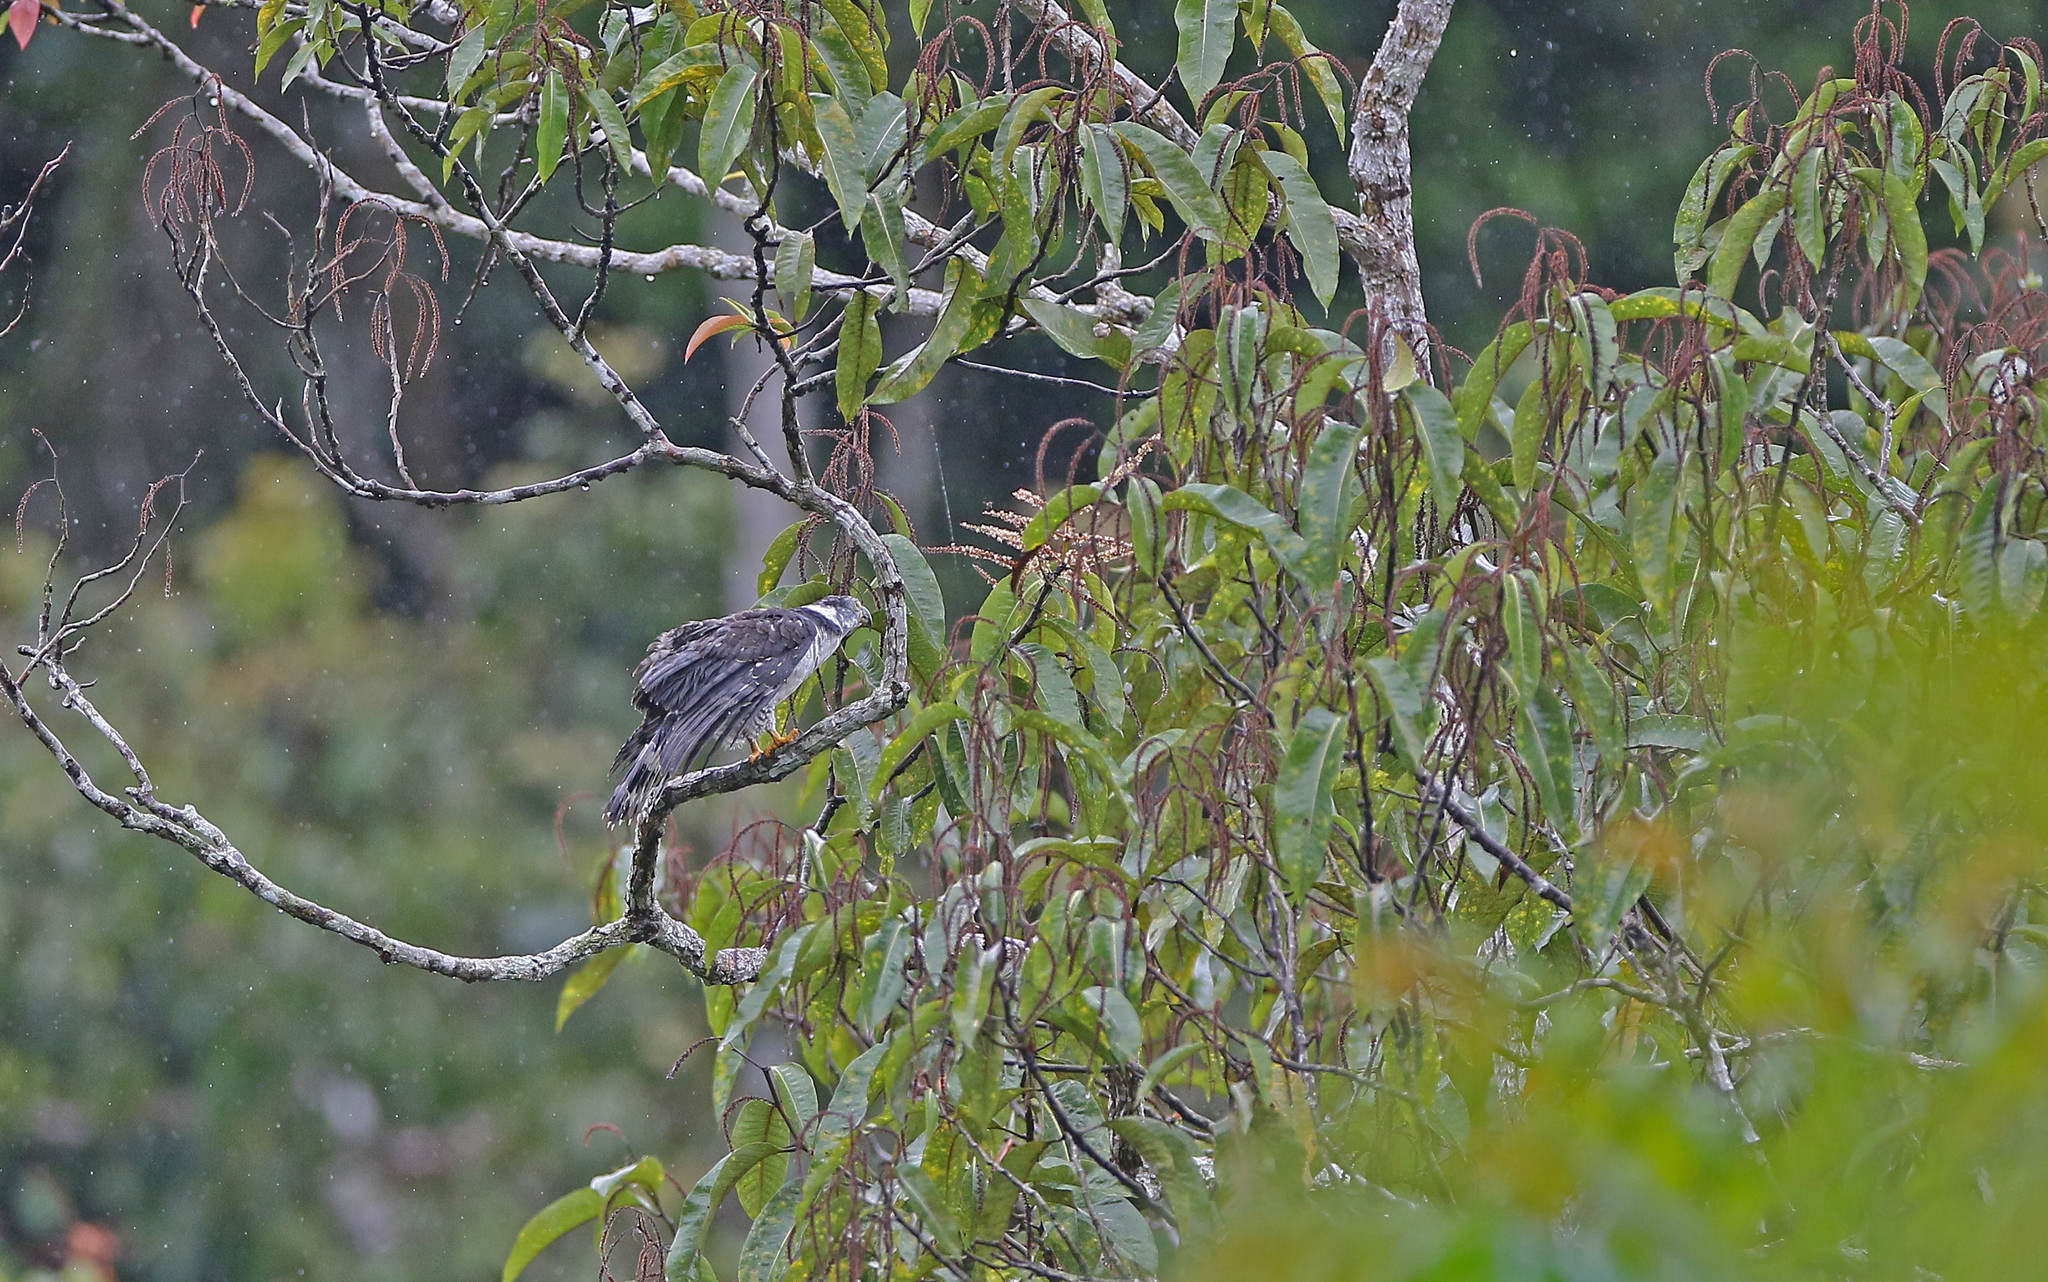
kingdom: Animalia
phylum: Chordata
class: Aves
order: Accipitriformes
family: Accipitridae
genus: Chondrohierax
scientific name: Chondrohierax uncinatus
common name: Hook-billed kite
